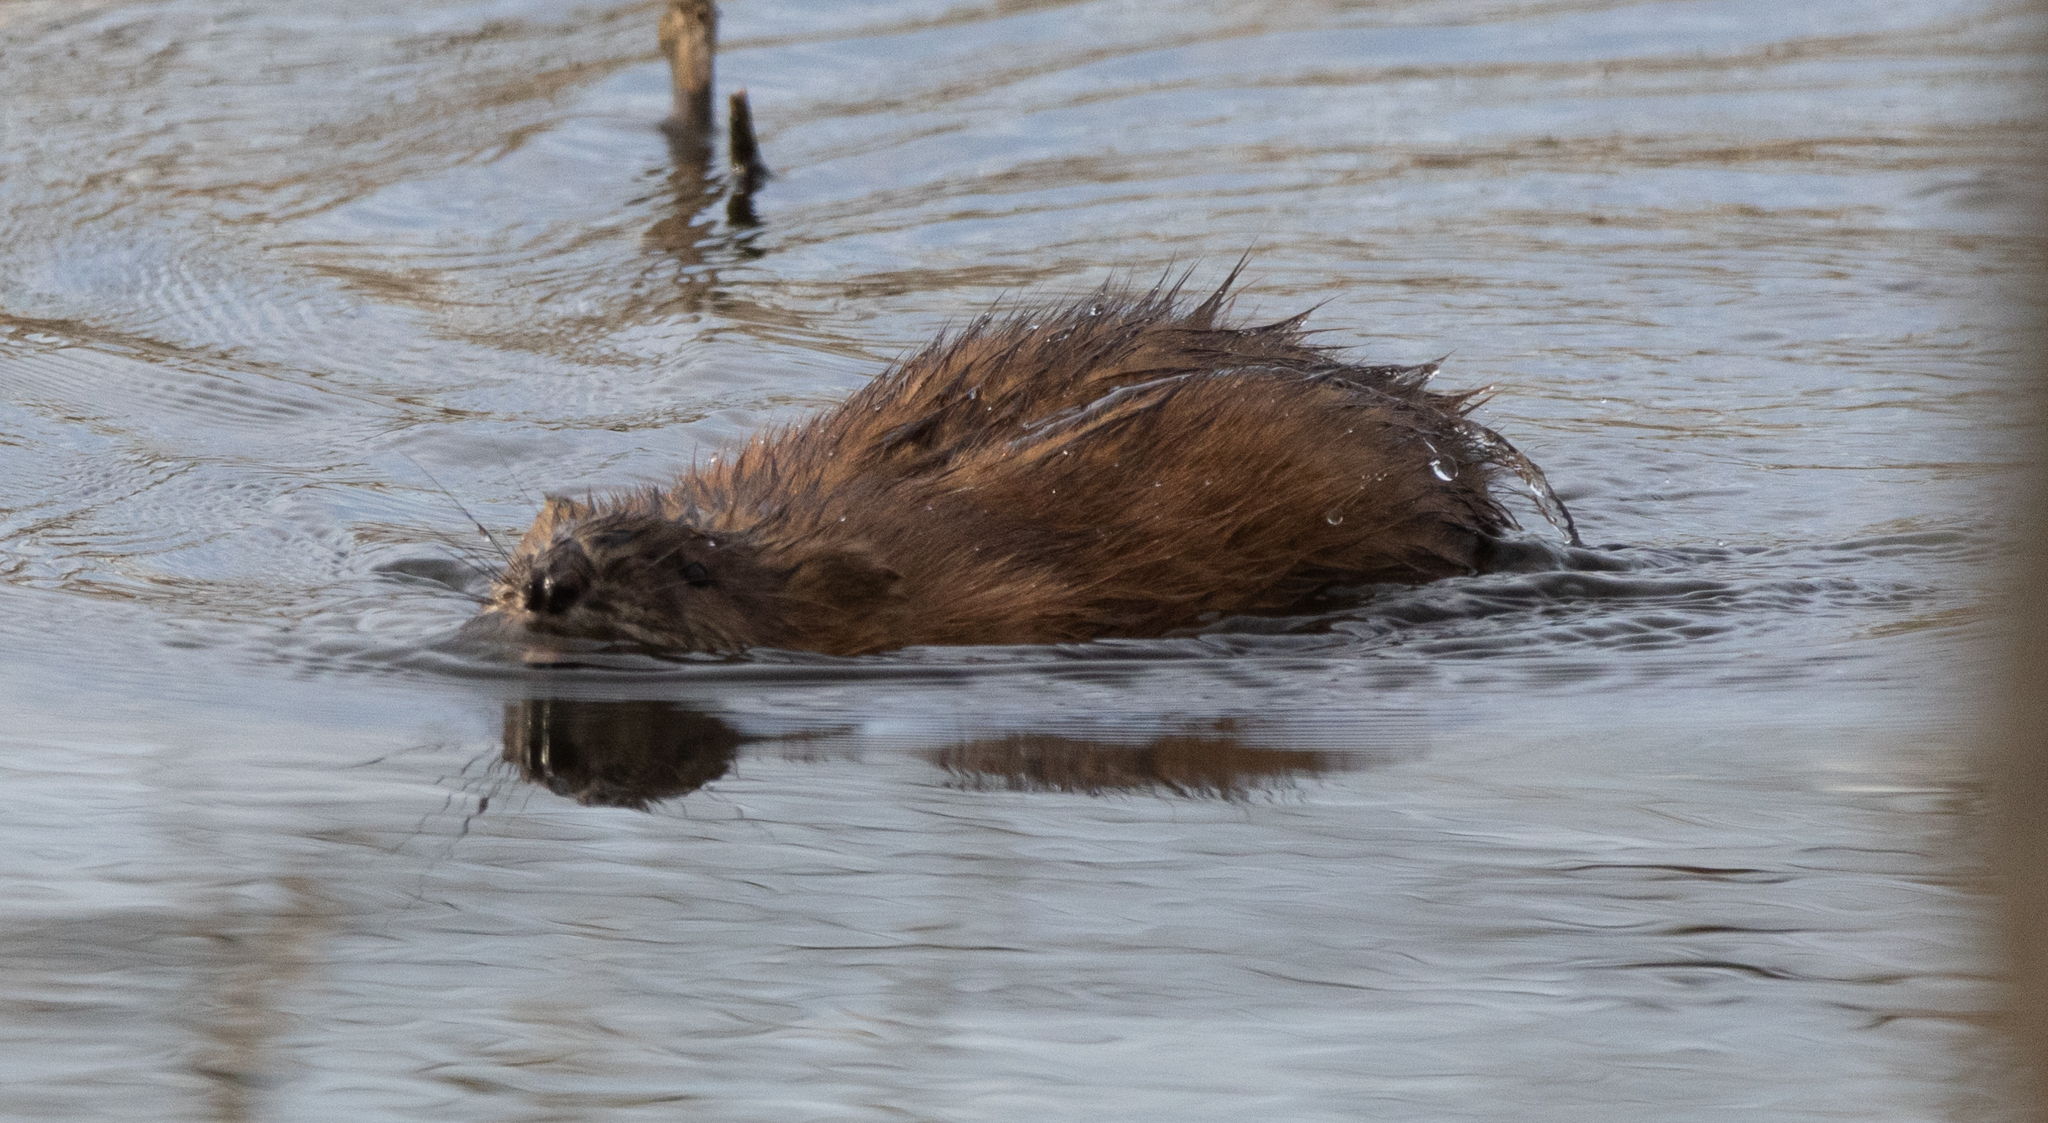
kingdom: Animalia
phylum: Chordata
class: Mammalia
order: Rodentia
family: Cricetidae
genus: Ondatra
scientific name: Ondatra zibethicus
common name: Muskrat
